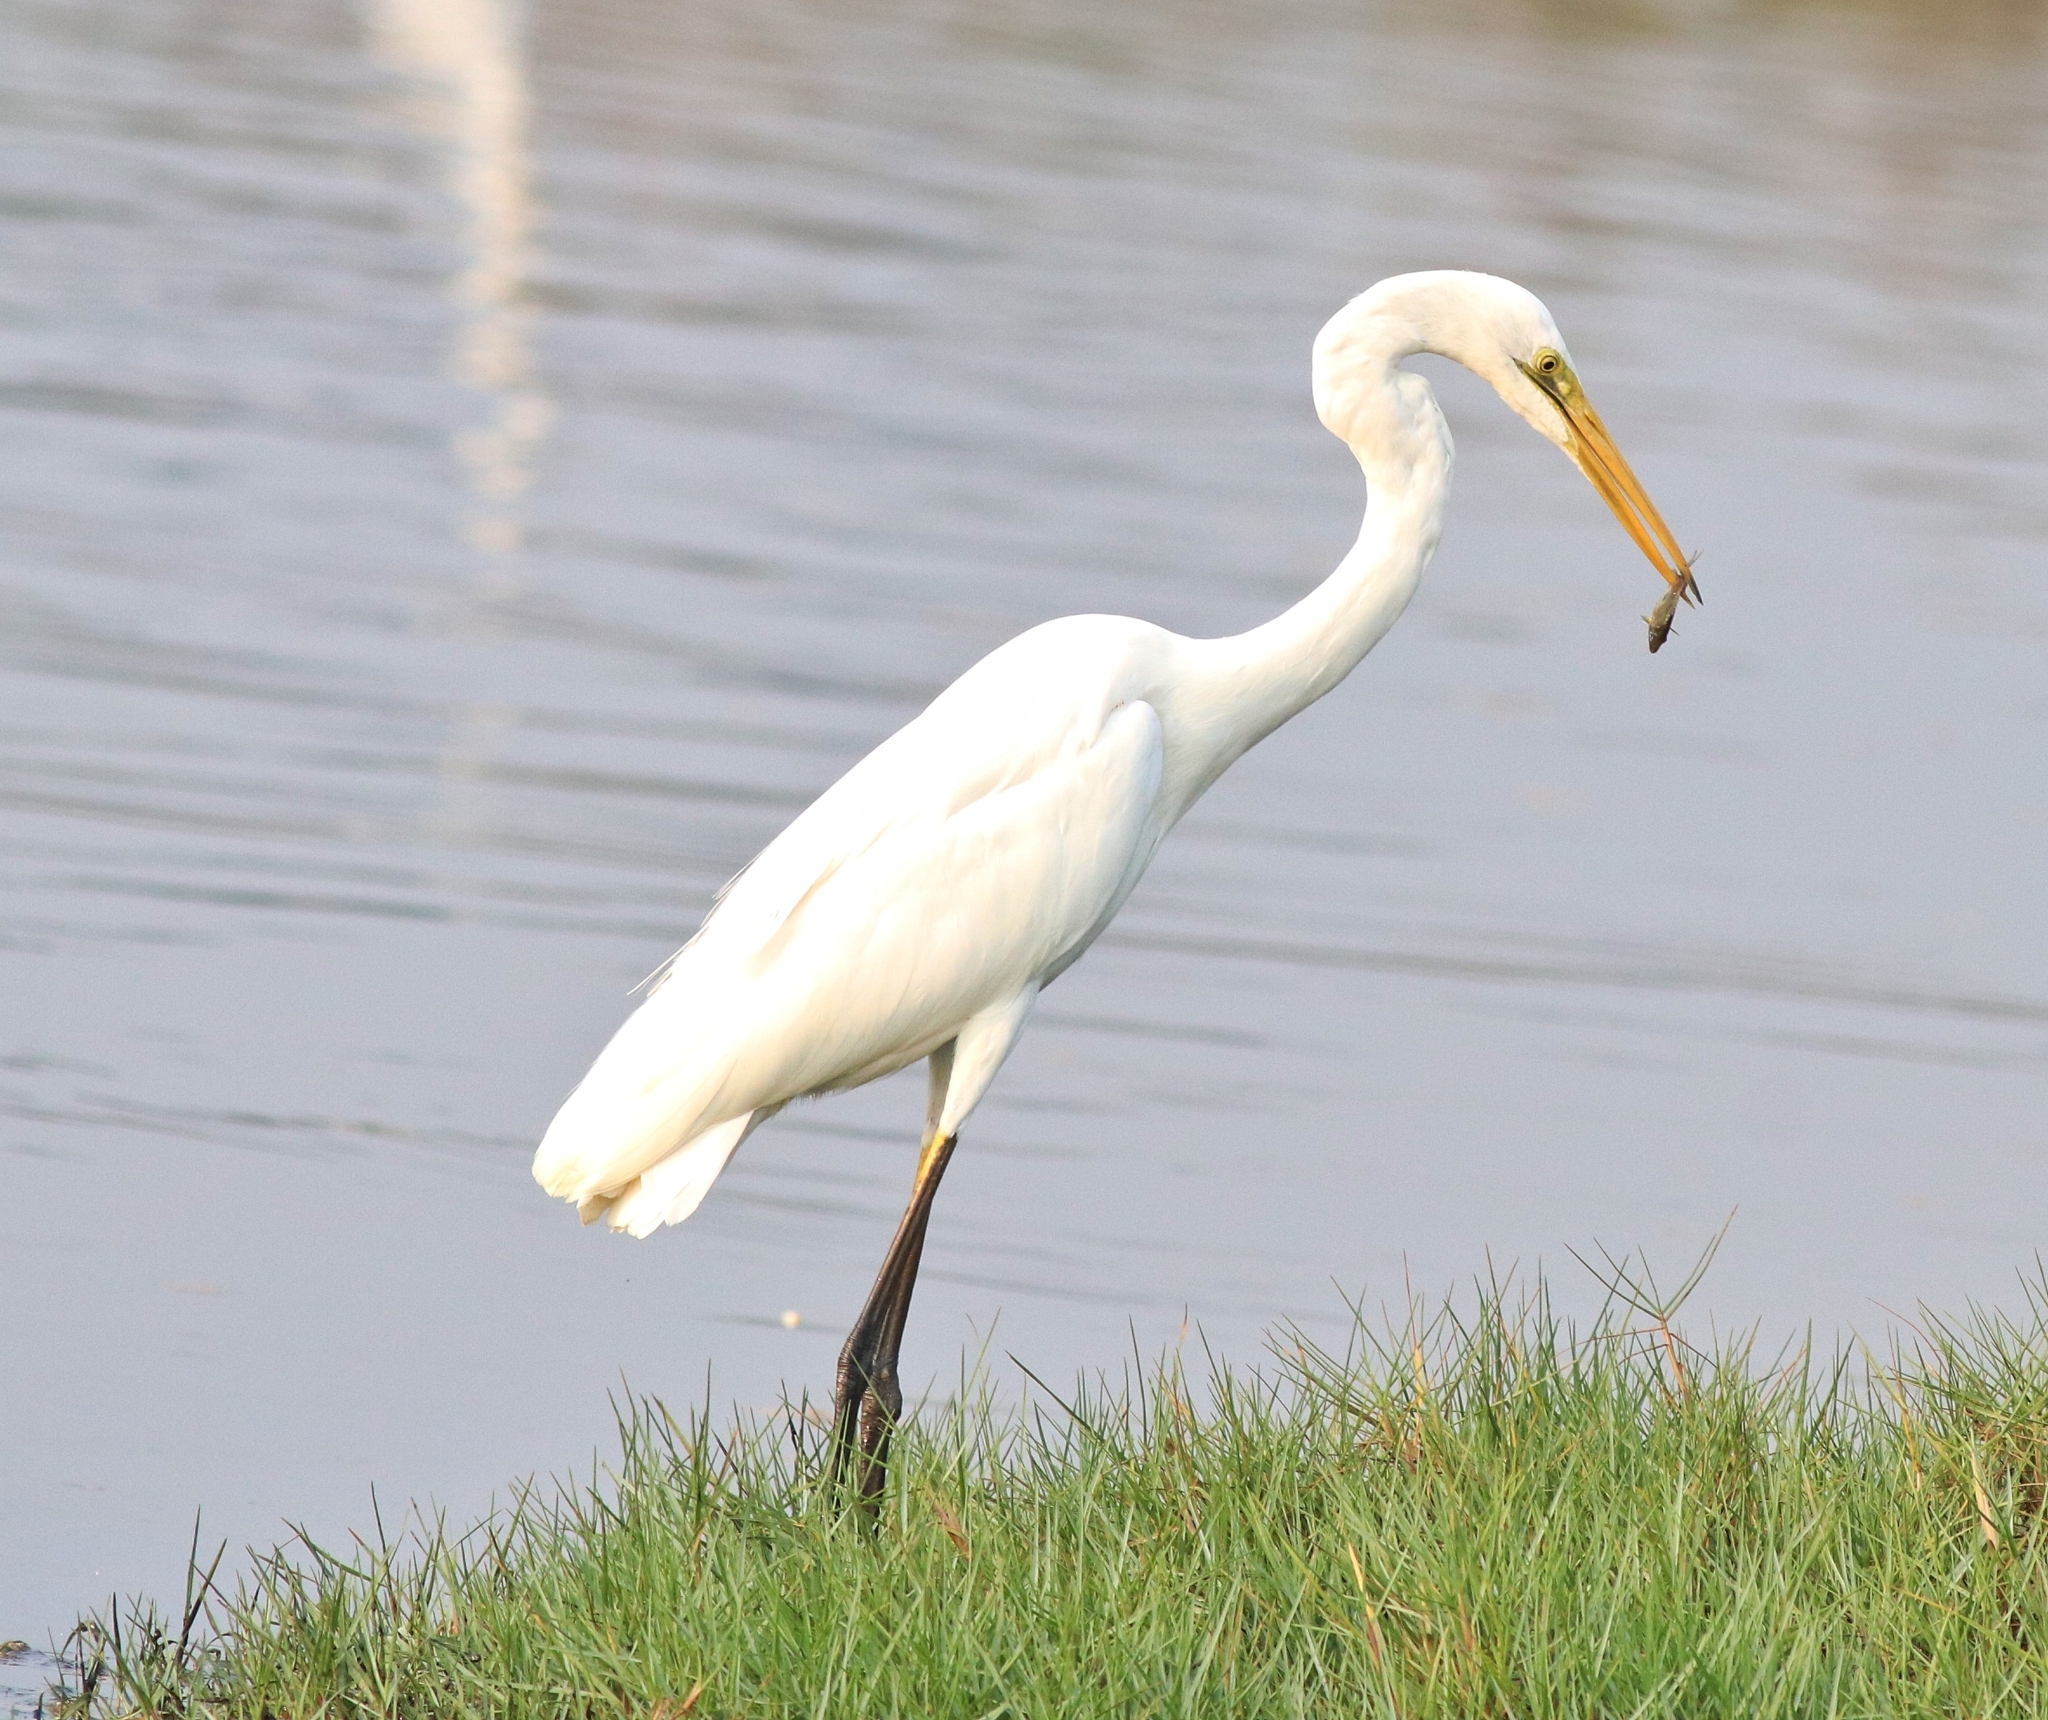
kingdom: Animalia
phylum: Chordata
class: Aves
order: Pelecaniformes
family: Ardeidae
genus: Ardea
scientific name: Ardea alba
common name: Great egret
